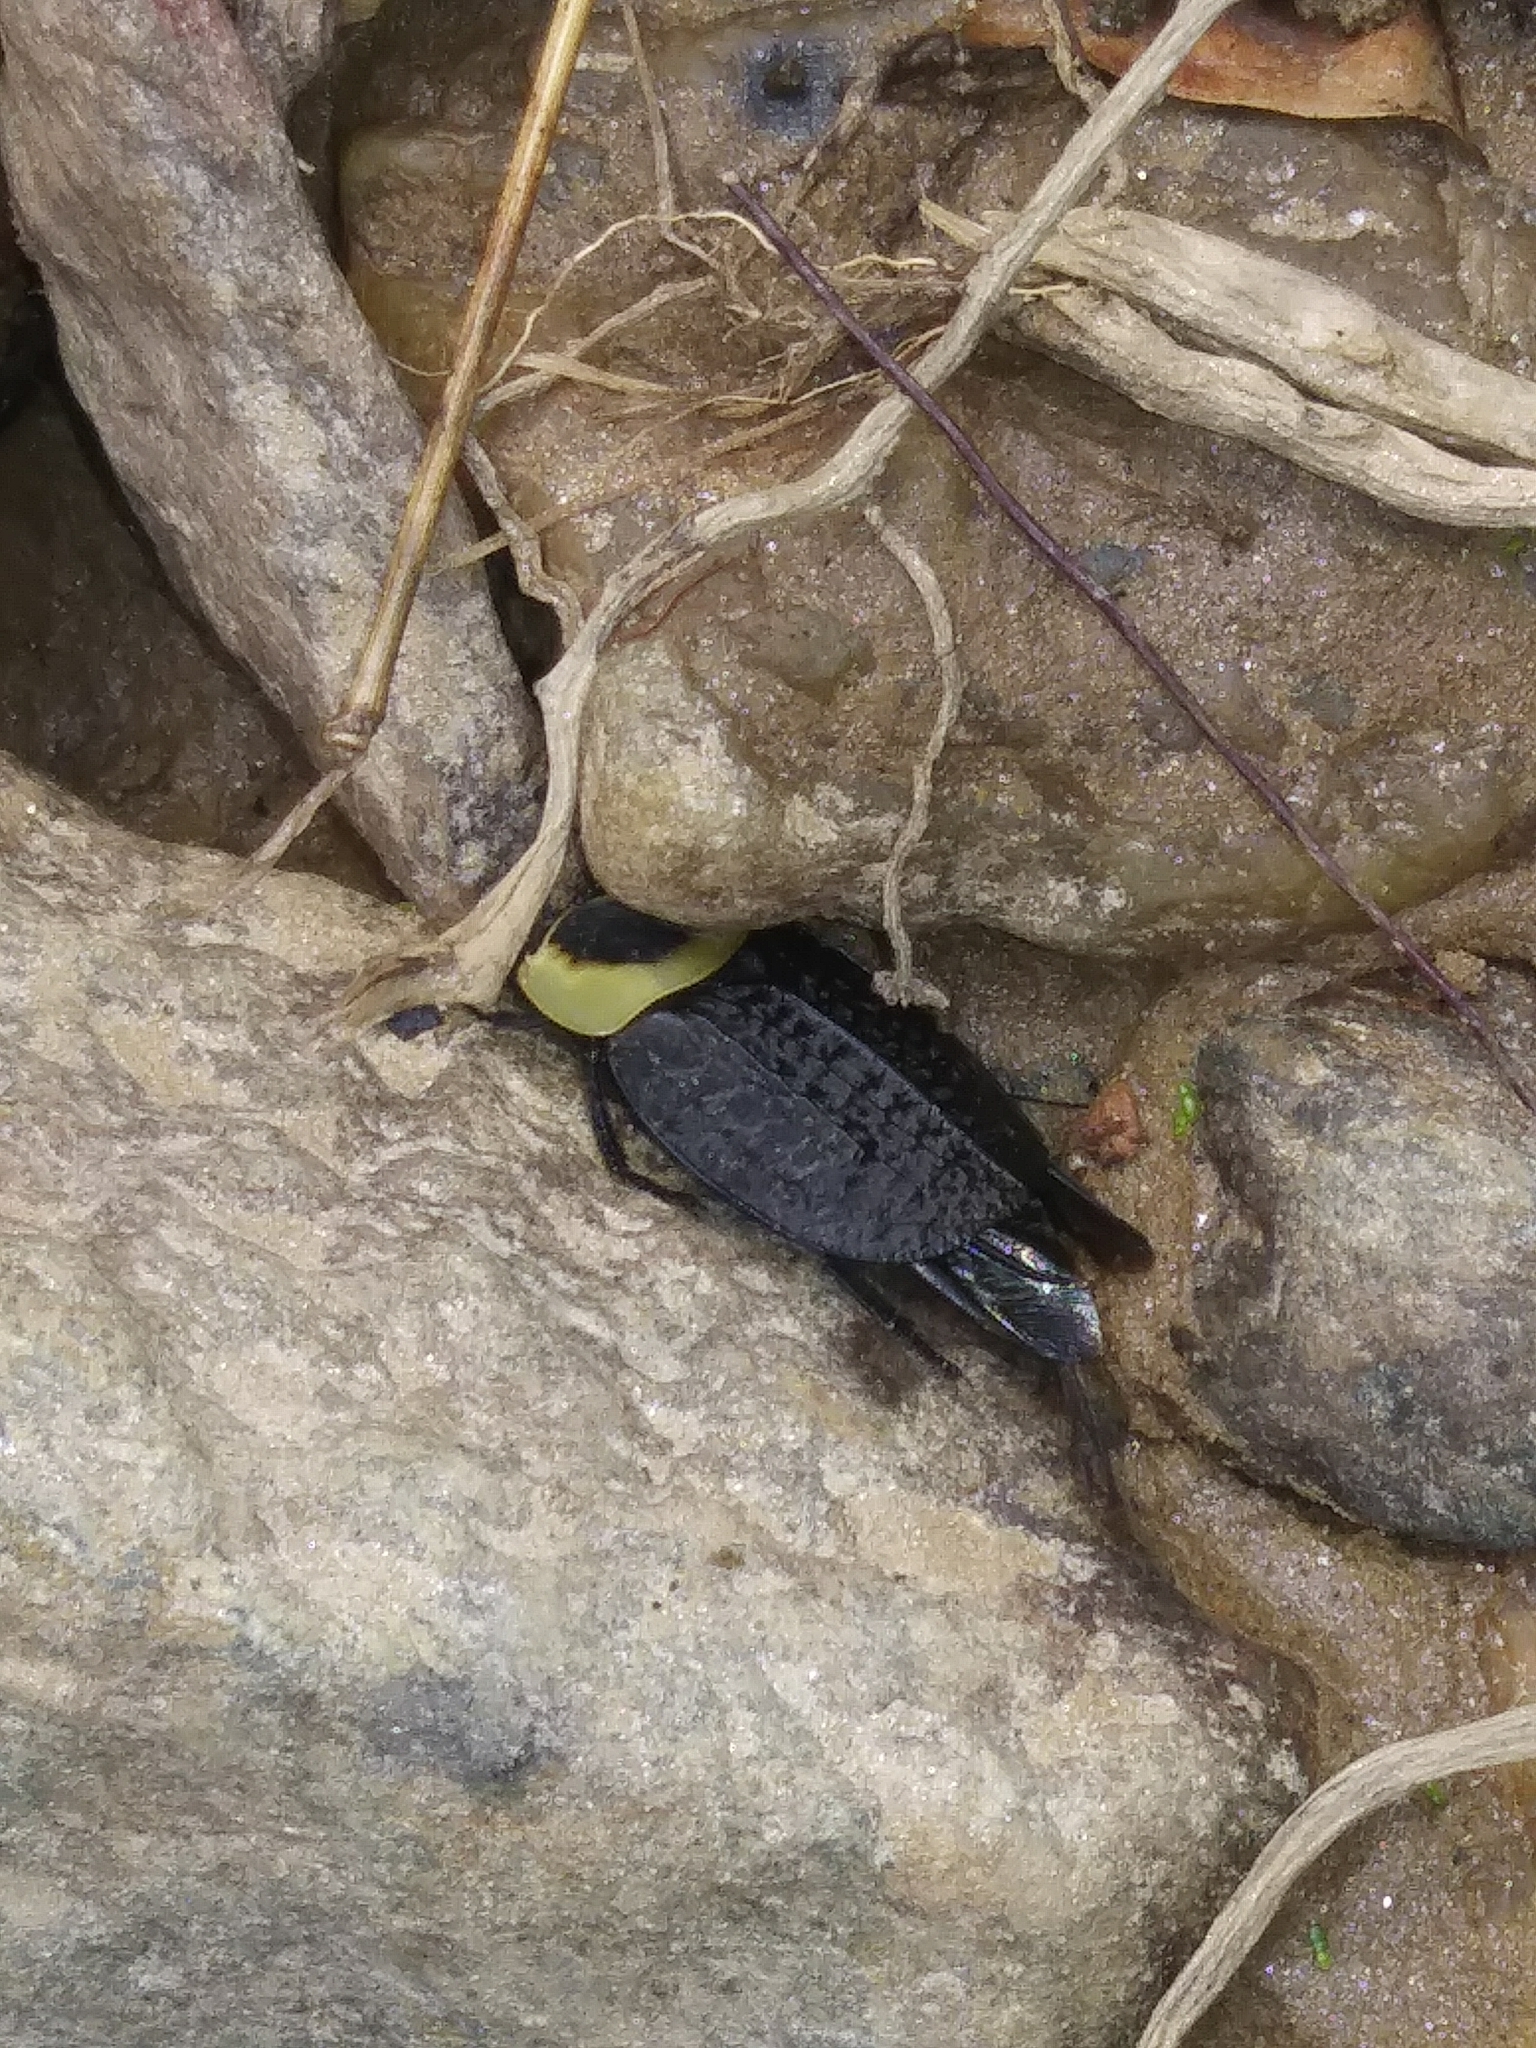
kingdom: Animalia
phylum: Arthropoda
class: Insecta
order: Coleoptera
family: Staphylinidae
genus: Necrophila
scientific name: Necrophila americana
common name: American carrion beetle
